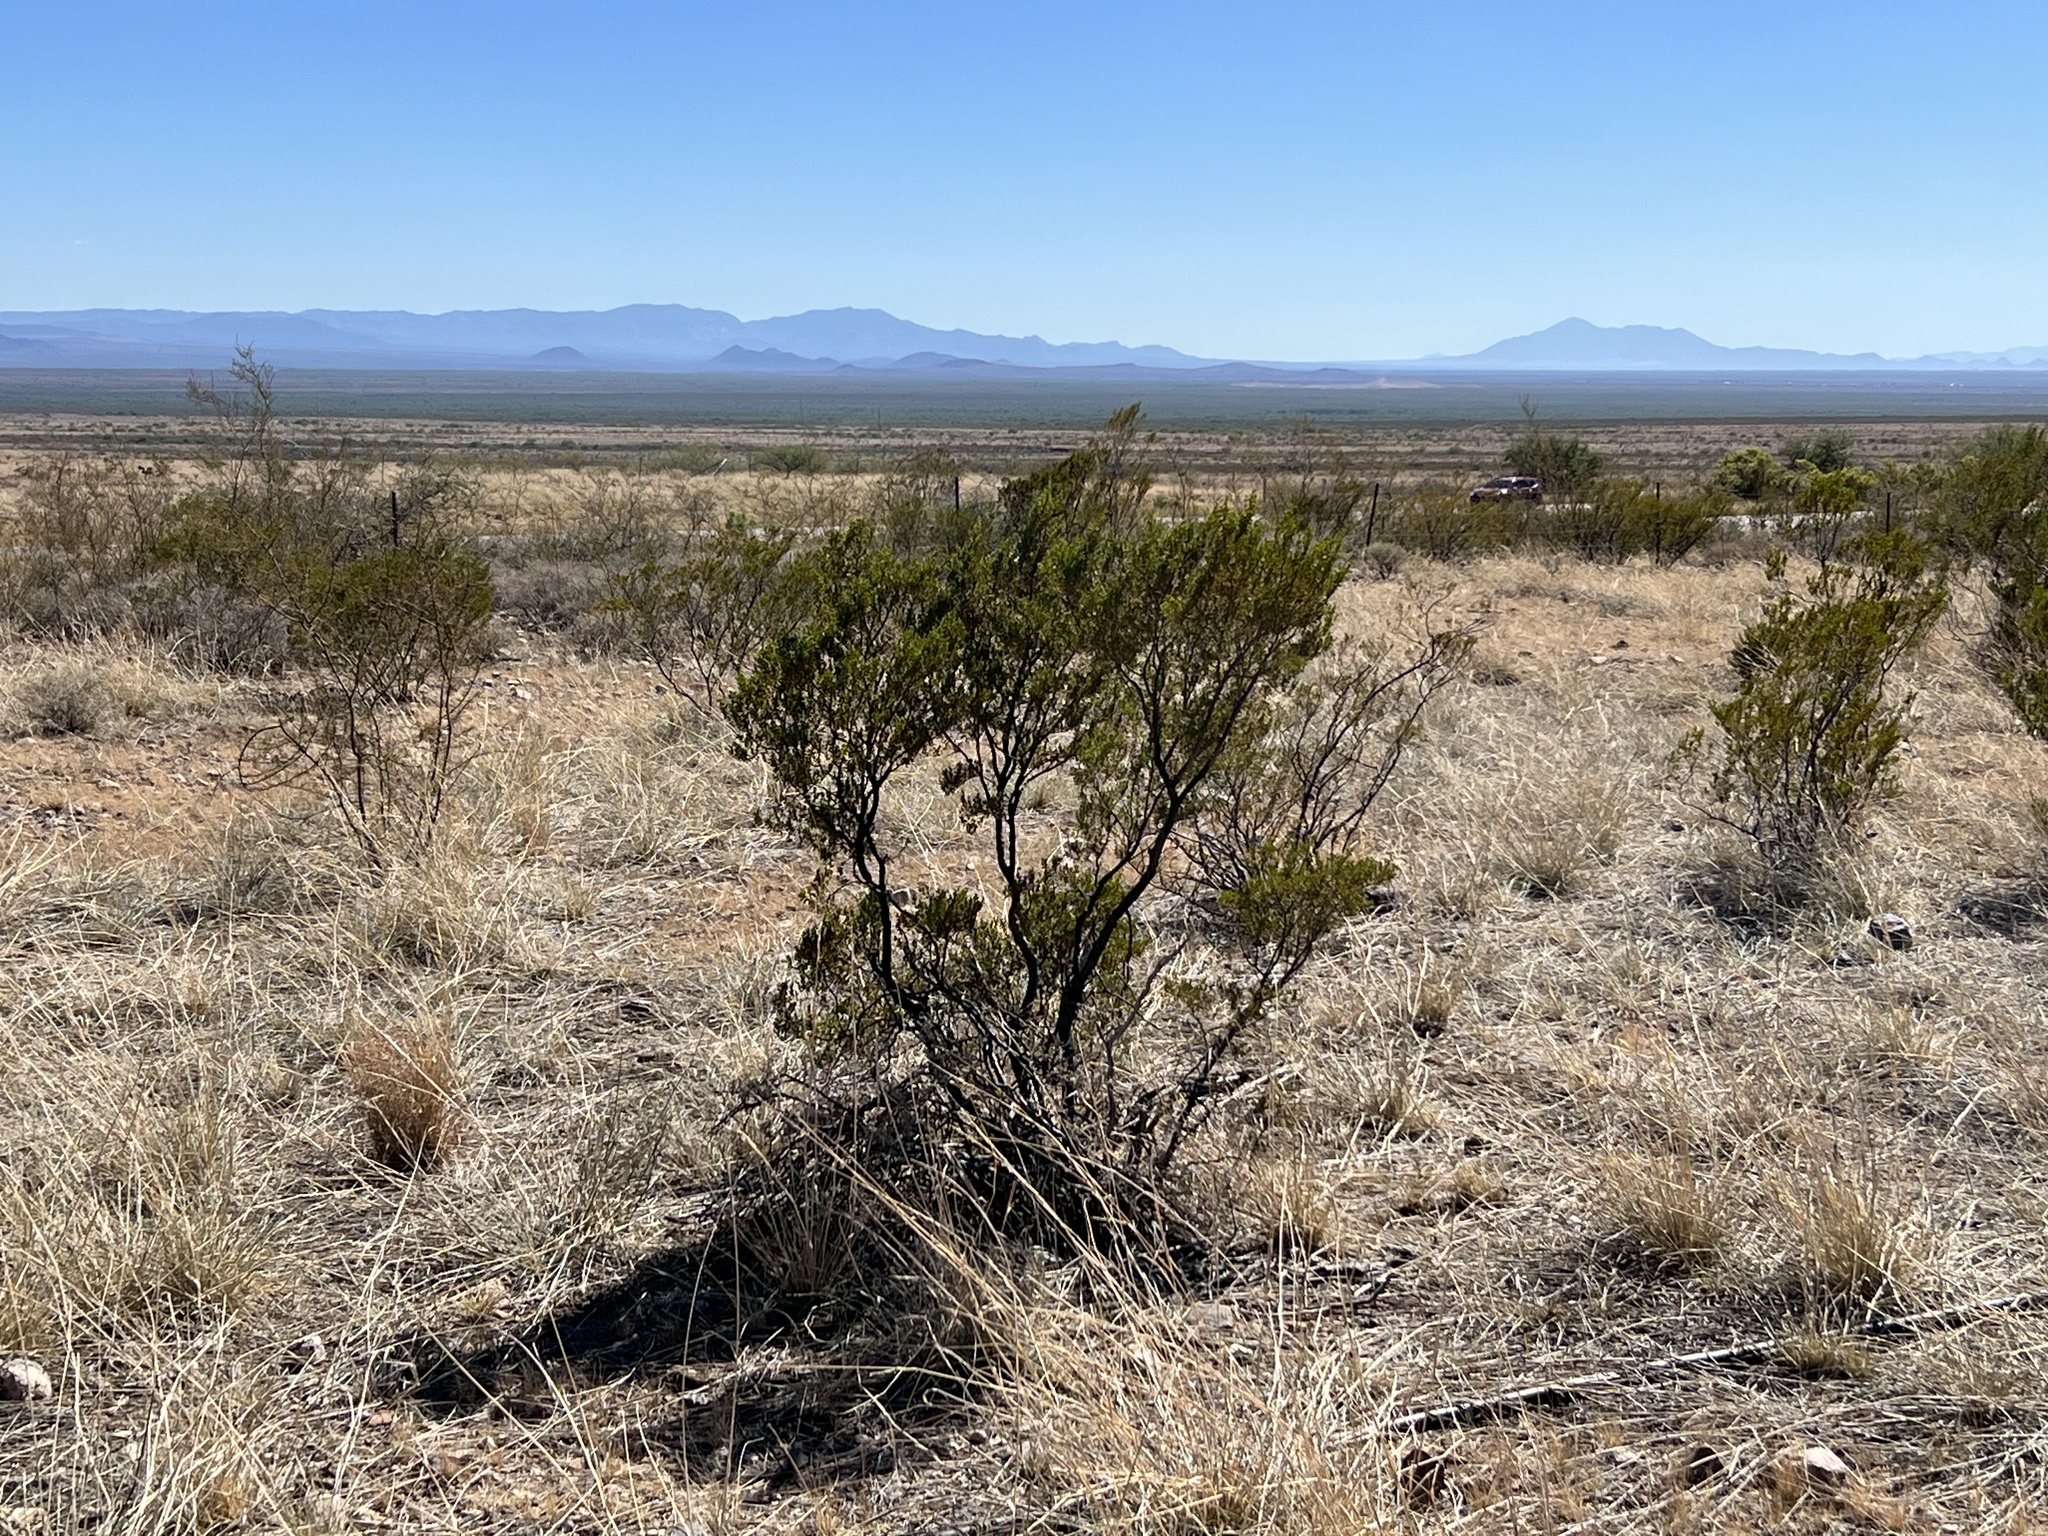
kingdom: Plantae
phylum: Tracheophyta
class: Magnoliopsida
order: Zygophyllales
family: Zygophyllaceae
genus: Larrea
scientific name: Larrea tridentata
